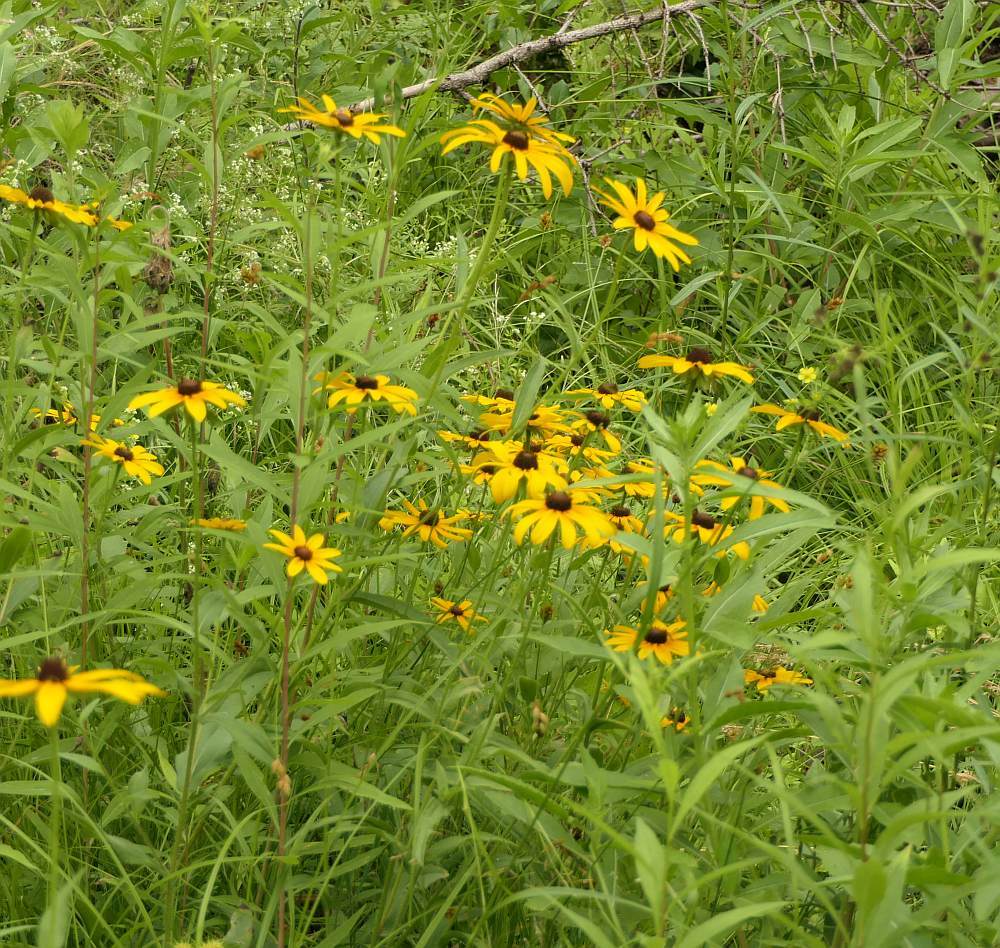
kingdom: Plantae
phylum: Tracheophyta
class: Magnoliopsida
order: Asterales
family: Asteraceae
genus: Rudbeckia
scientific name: Rudbeckia hirta
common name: Black-eyed-susan
